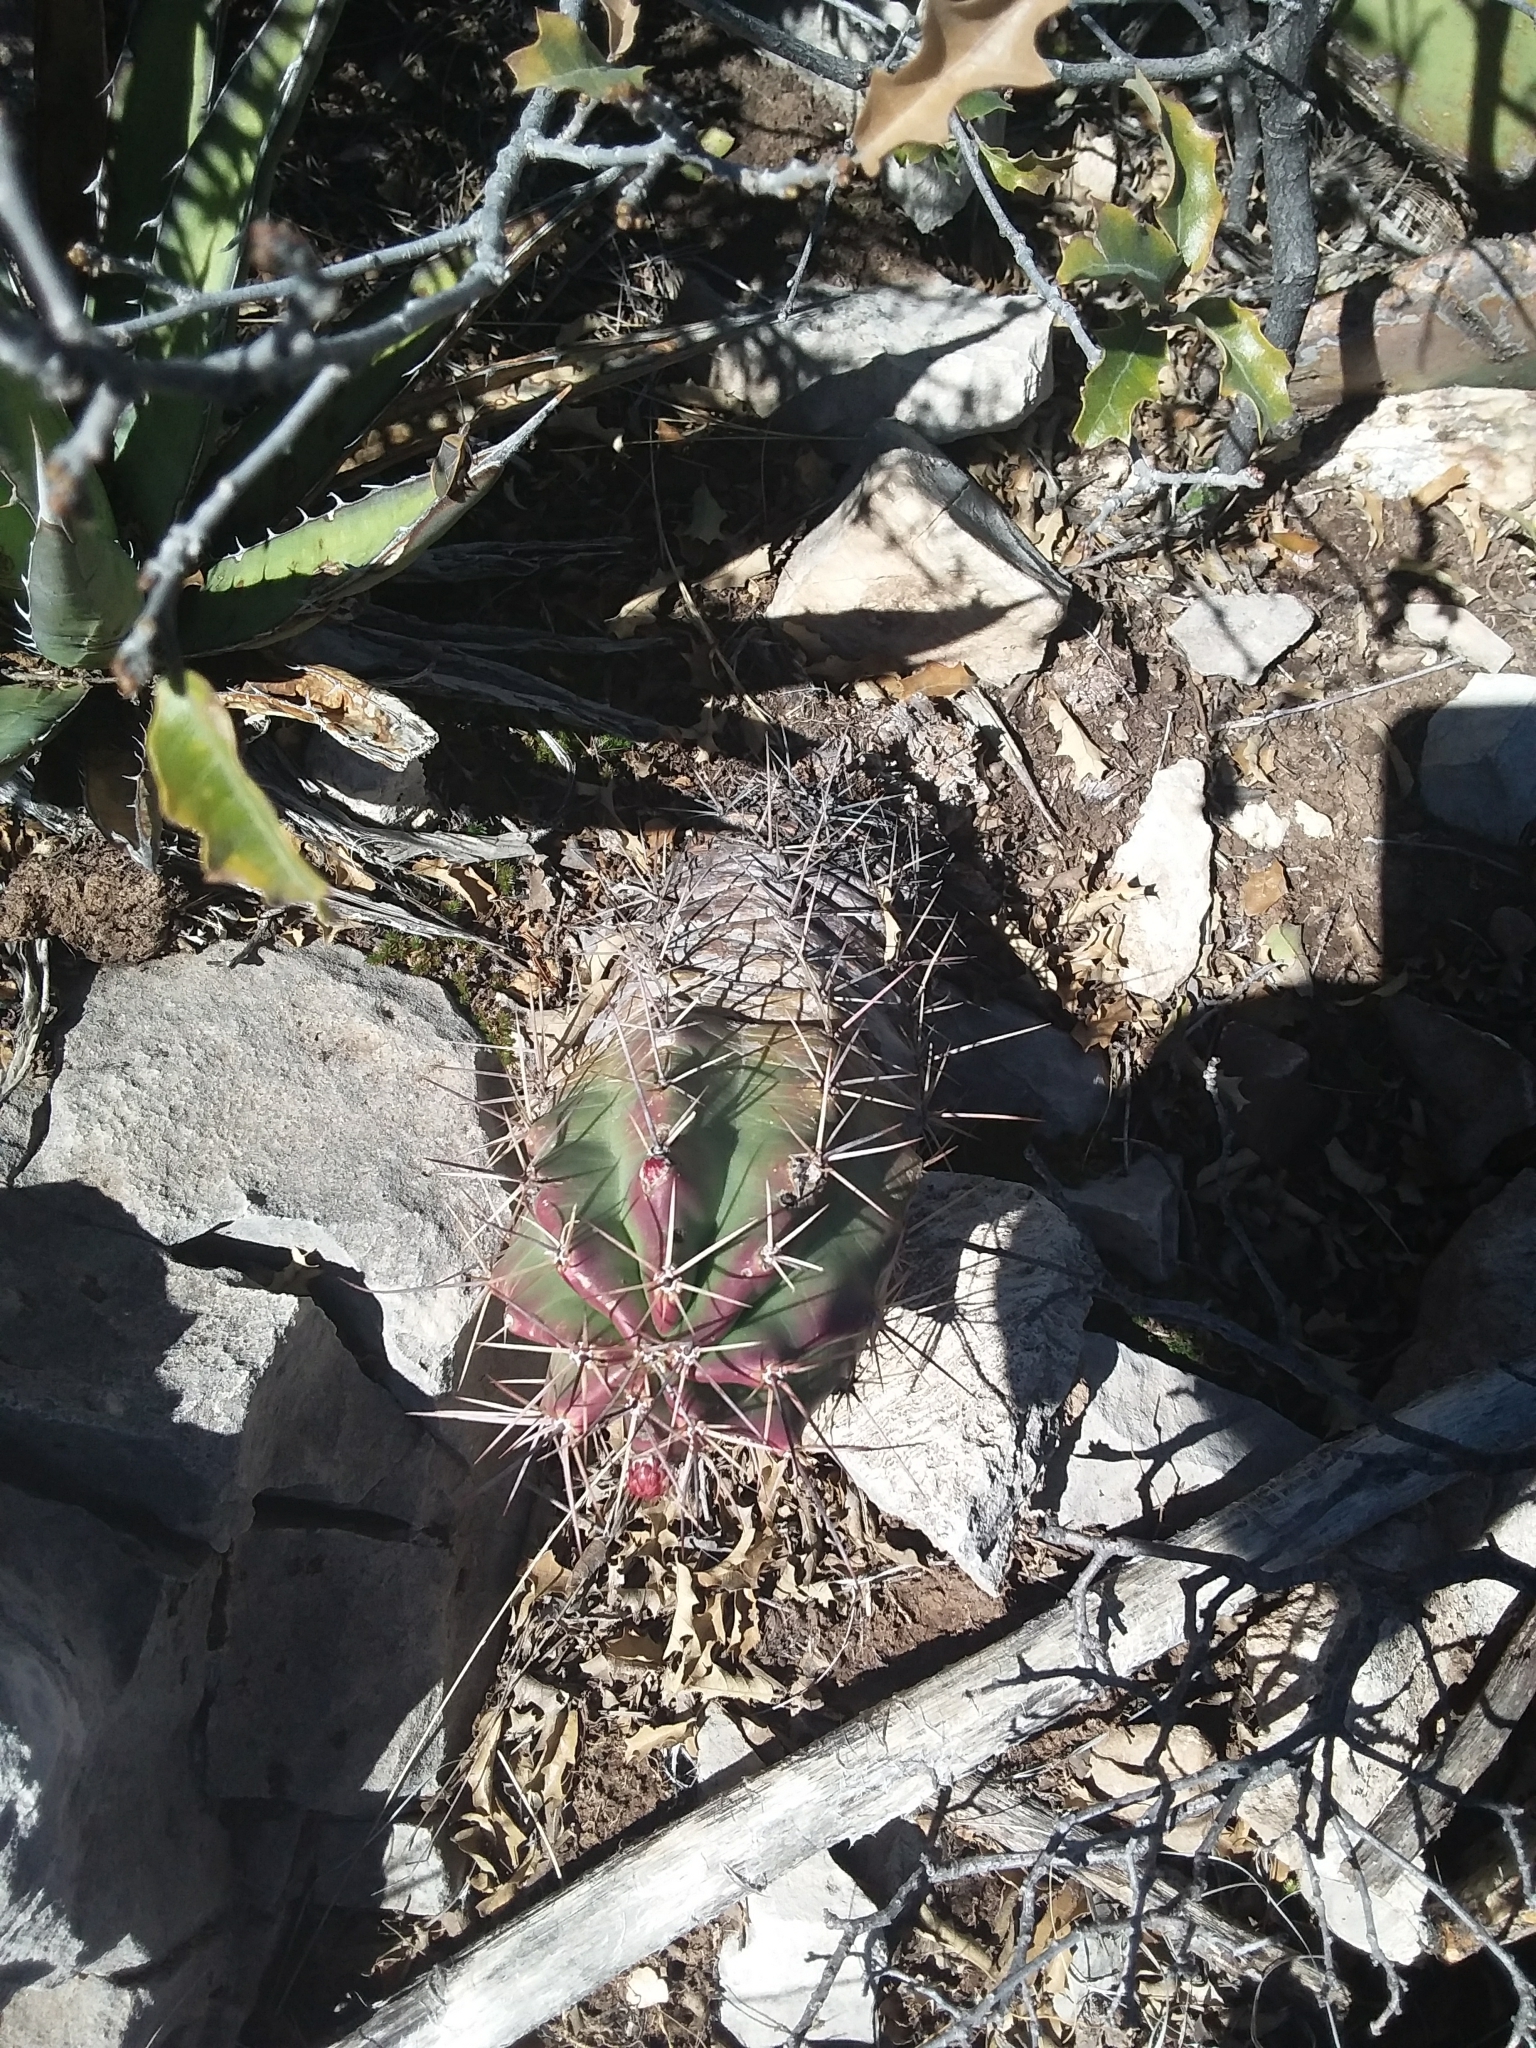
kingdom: Plantae
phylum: Tracheophyta
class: Magnoliopsida
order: Caryophyllales
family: Cactaceae
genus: Echinocereus
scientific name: Echinocereus coccineus
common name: Scarlet hedgehog cactus
